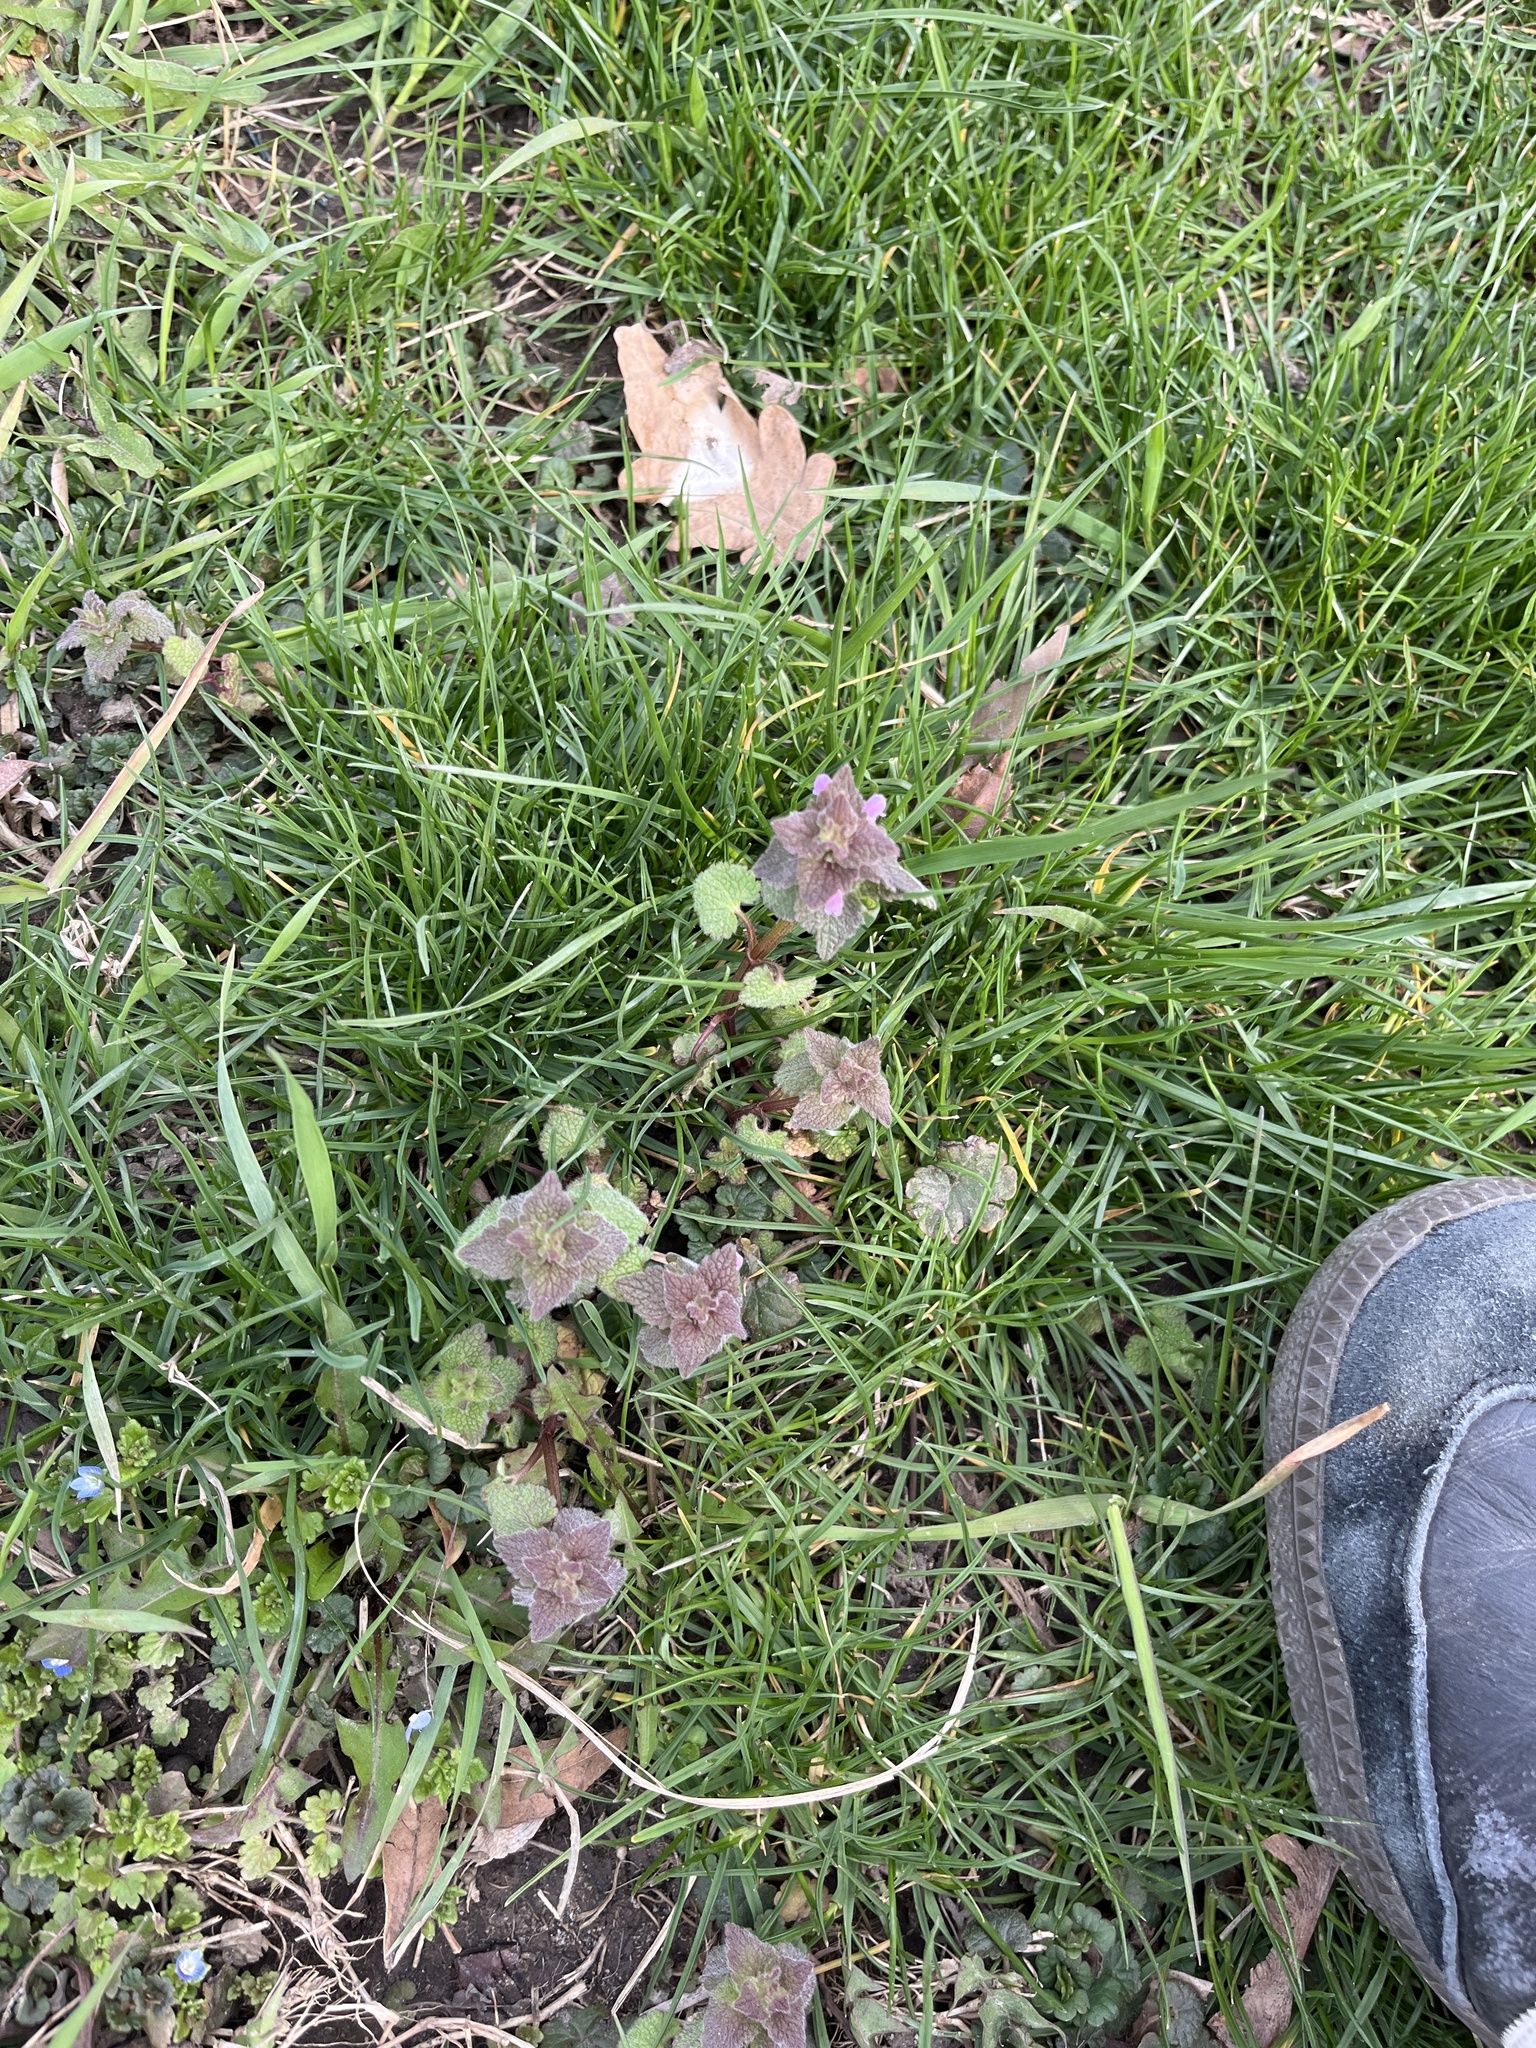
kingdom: Plantae
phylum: Tracheophyta
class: Magnoliopsida
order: Lamiales
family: Lamiaceae
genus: Lamium
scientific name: Lamium purpureum
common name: Red dead-nettle
